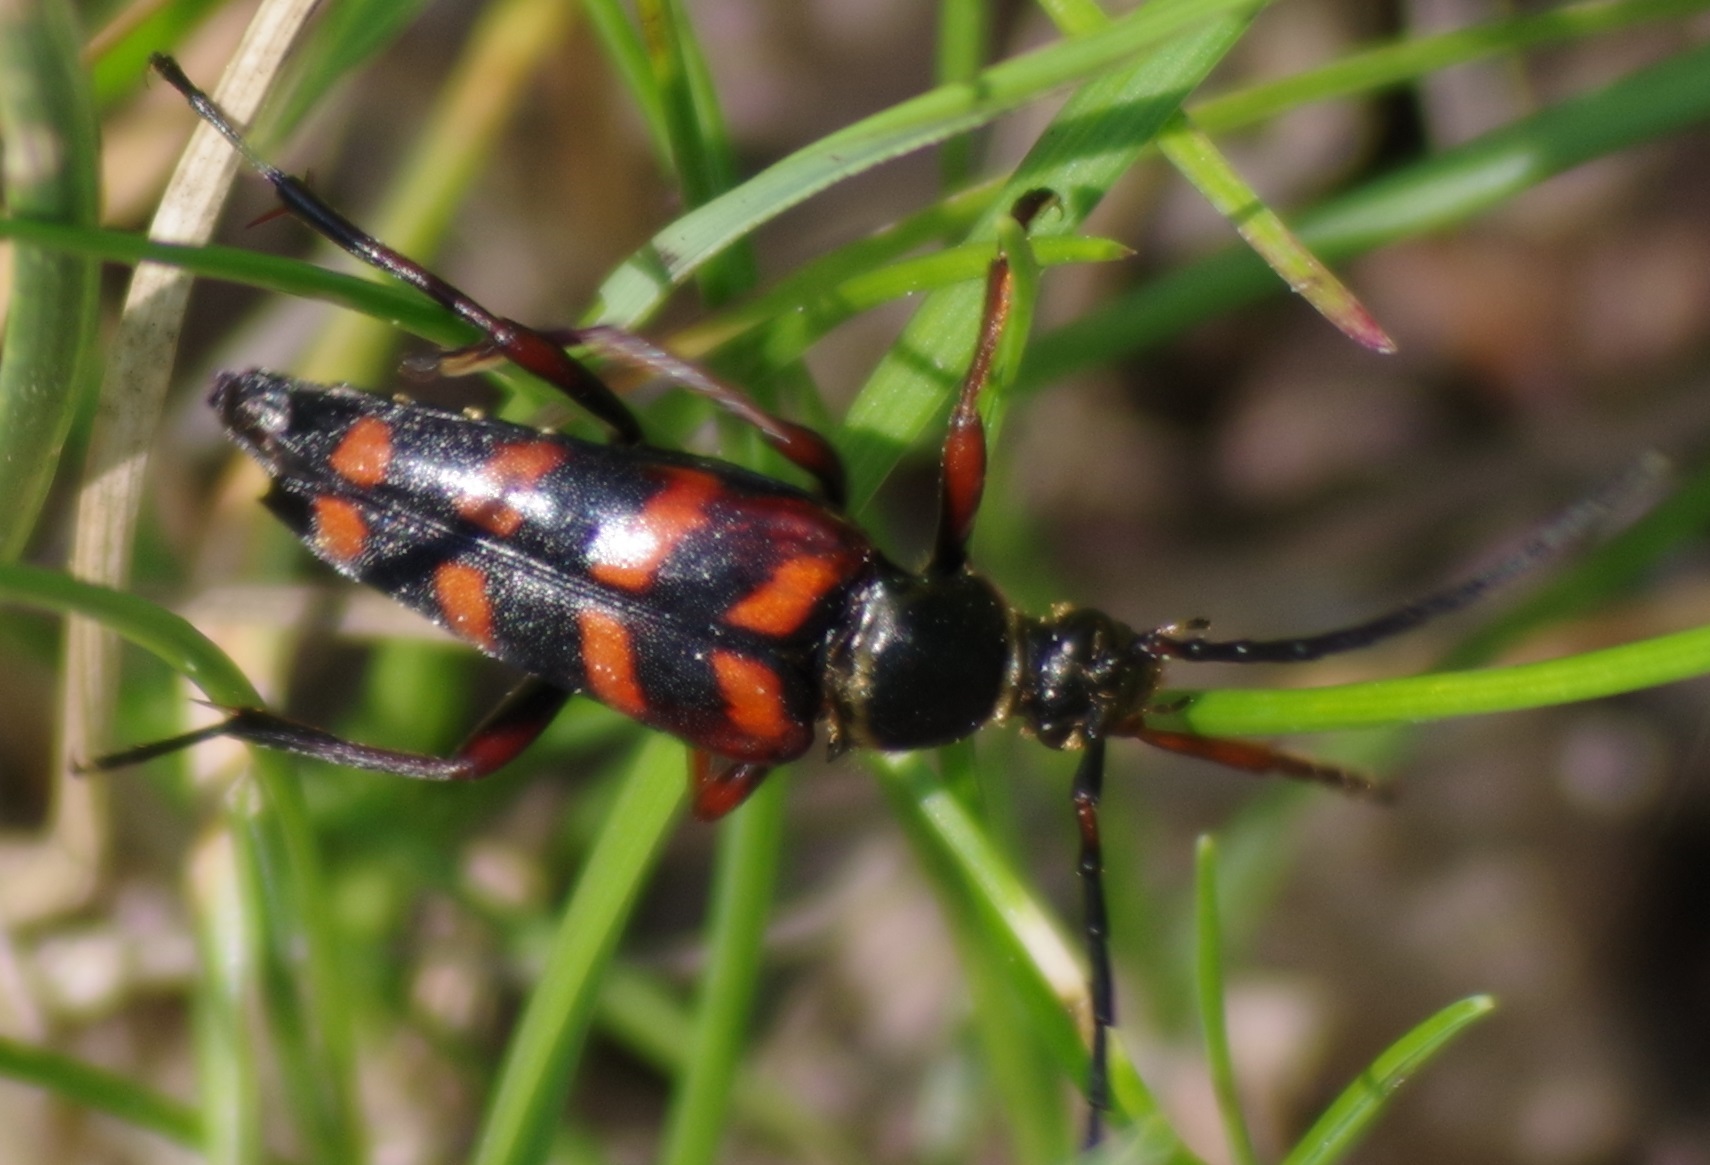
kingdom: Animalia
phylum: Arthropoda
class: Insecta
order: Coleoptera
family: Cerambycidae
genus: Leptura
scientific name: Leptura aurulenta
